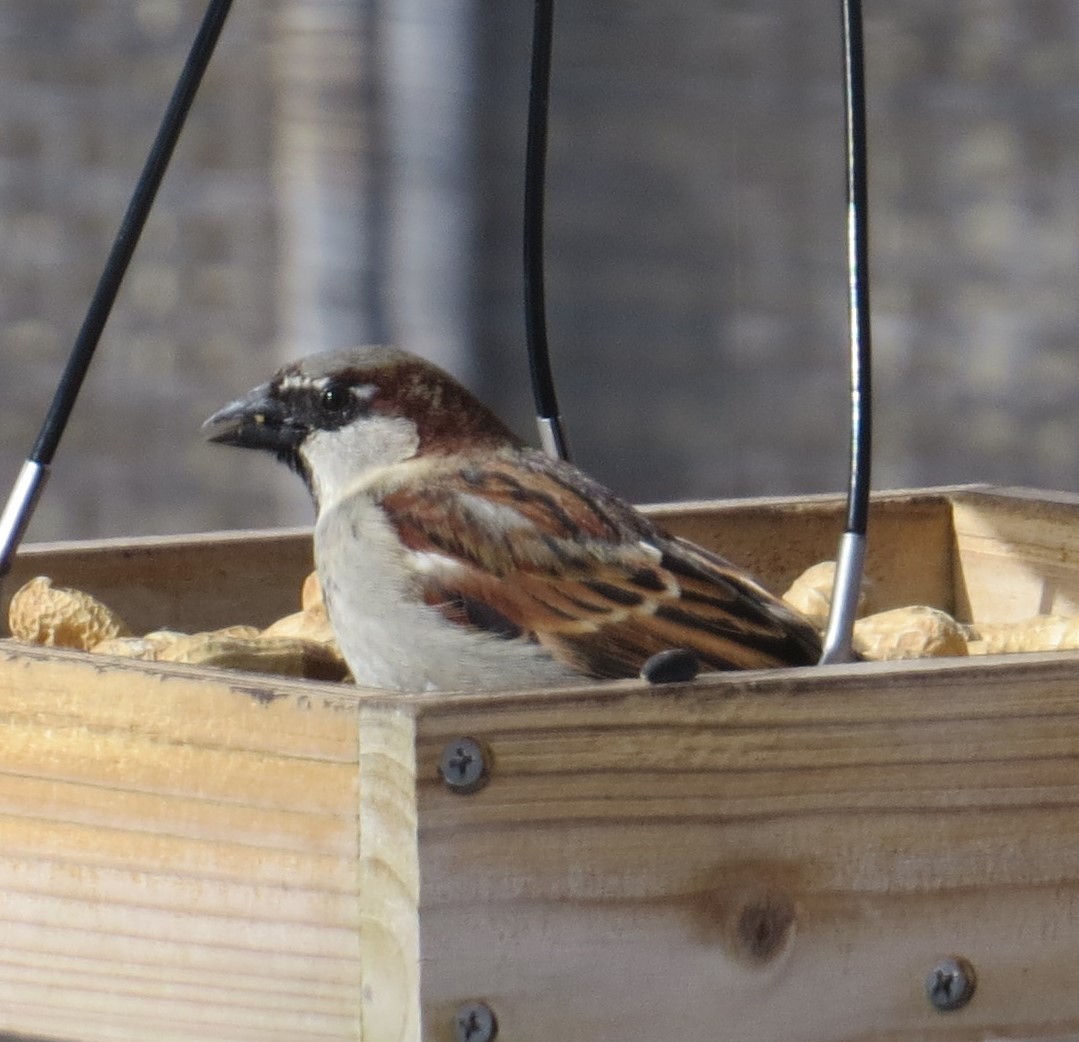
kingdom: Animalia
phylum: Chordata
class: Aves
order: Passeriformes
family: Passeridae
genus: Passer
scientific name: Passer domesticus
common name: House sparrow
